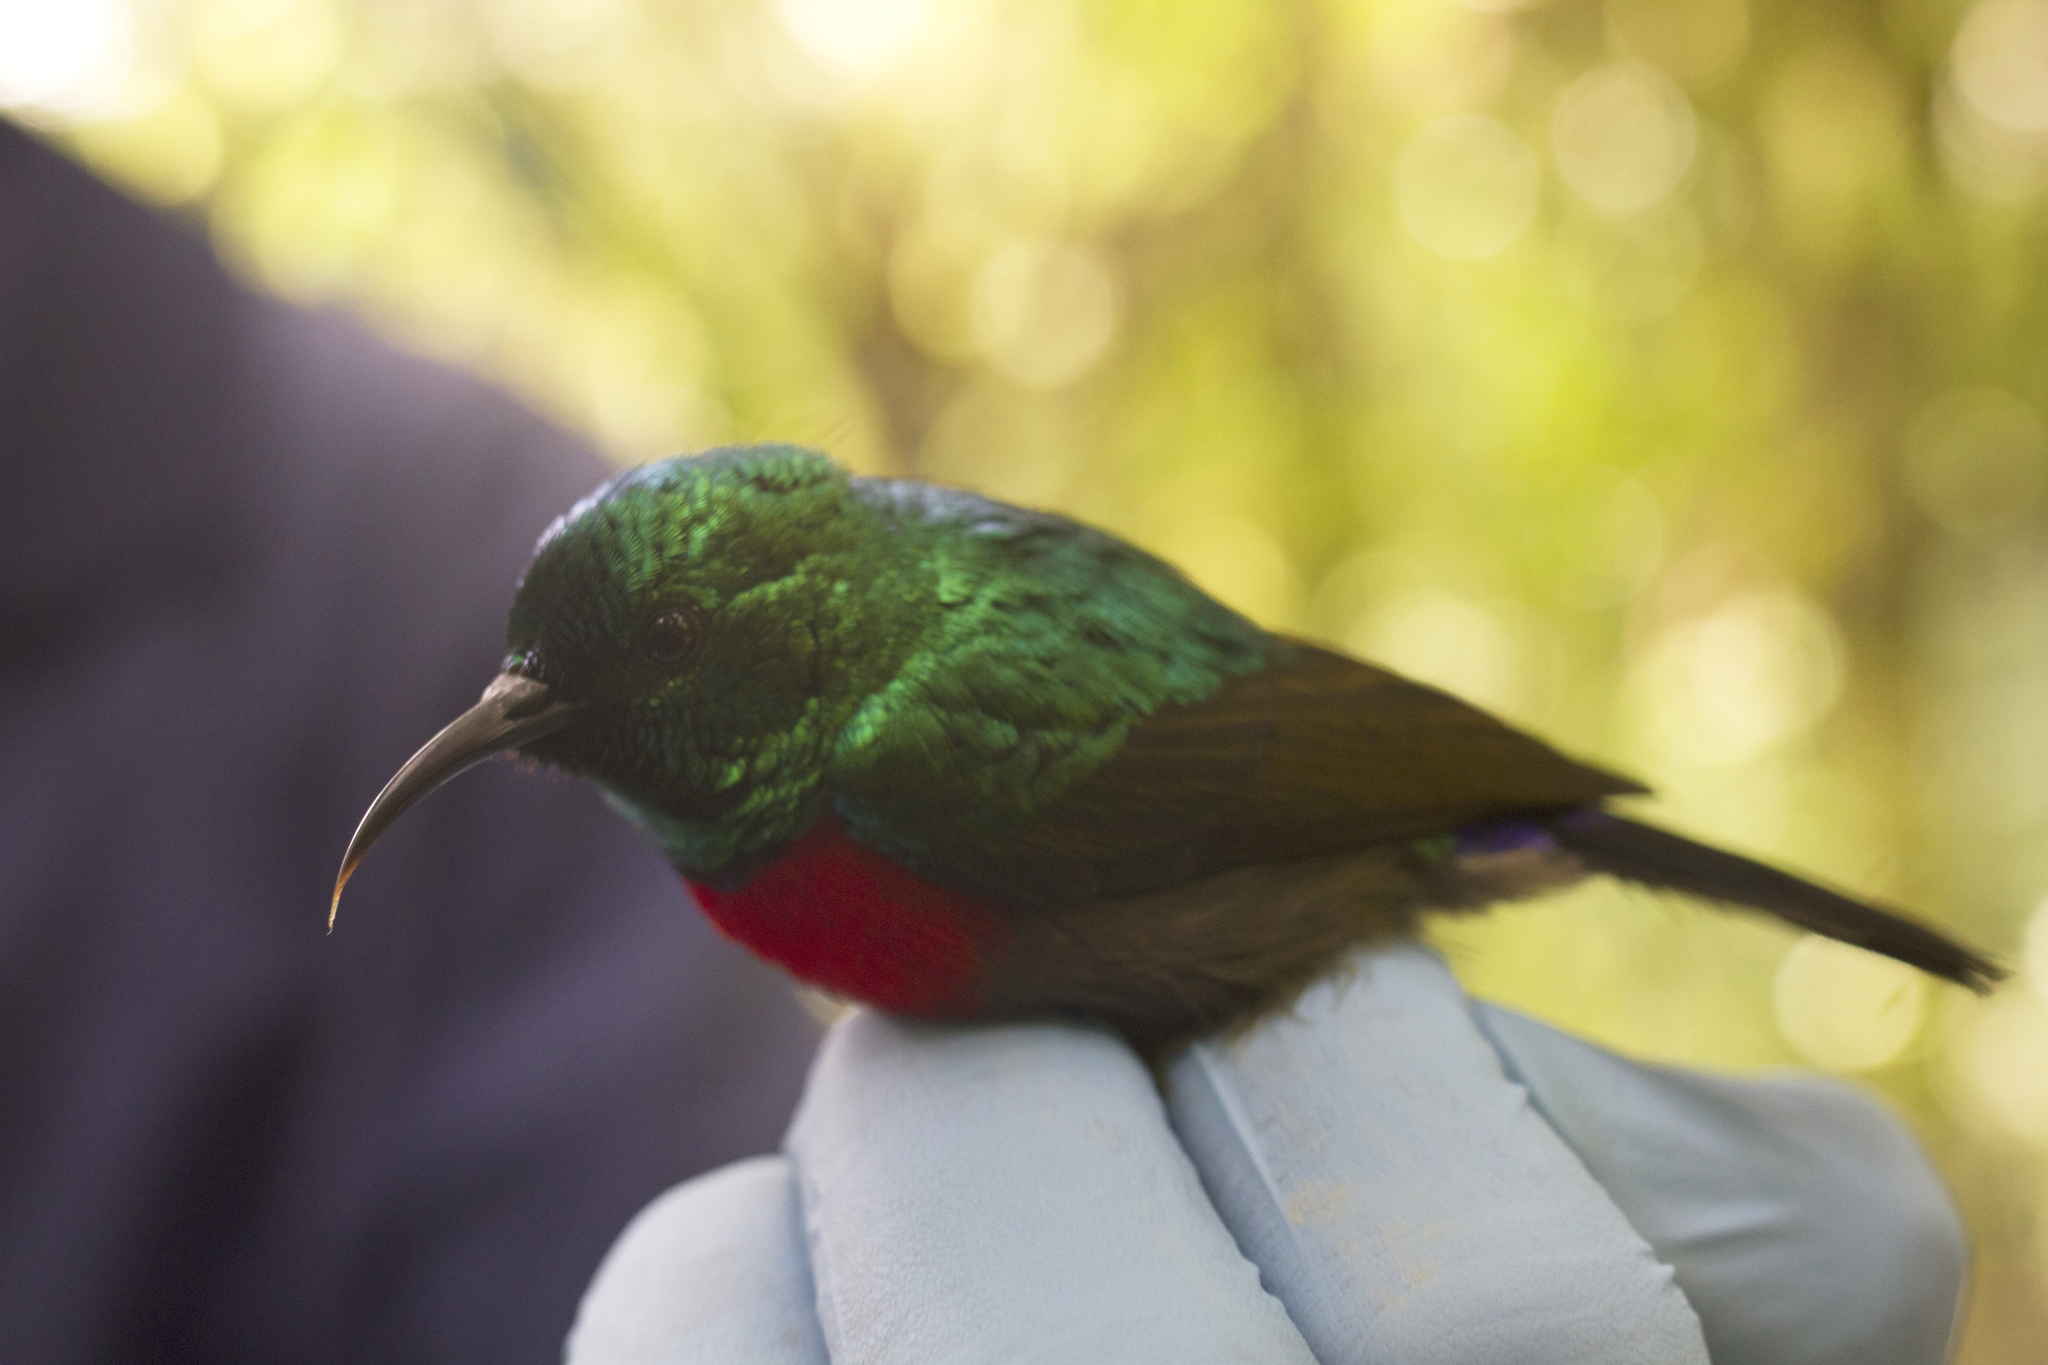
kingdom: Animalia
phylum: Chordata
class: Aves
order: Passeriformes
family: Nectariniidae
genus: Cinnyris
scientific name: Cinnyris minullus
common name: Tiny sunbird
